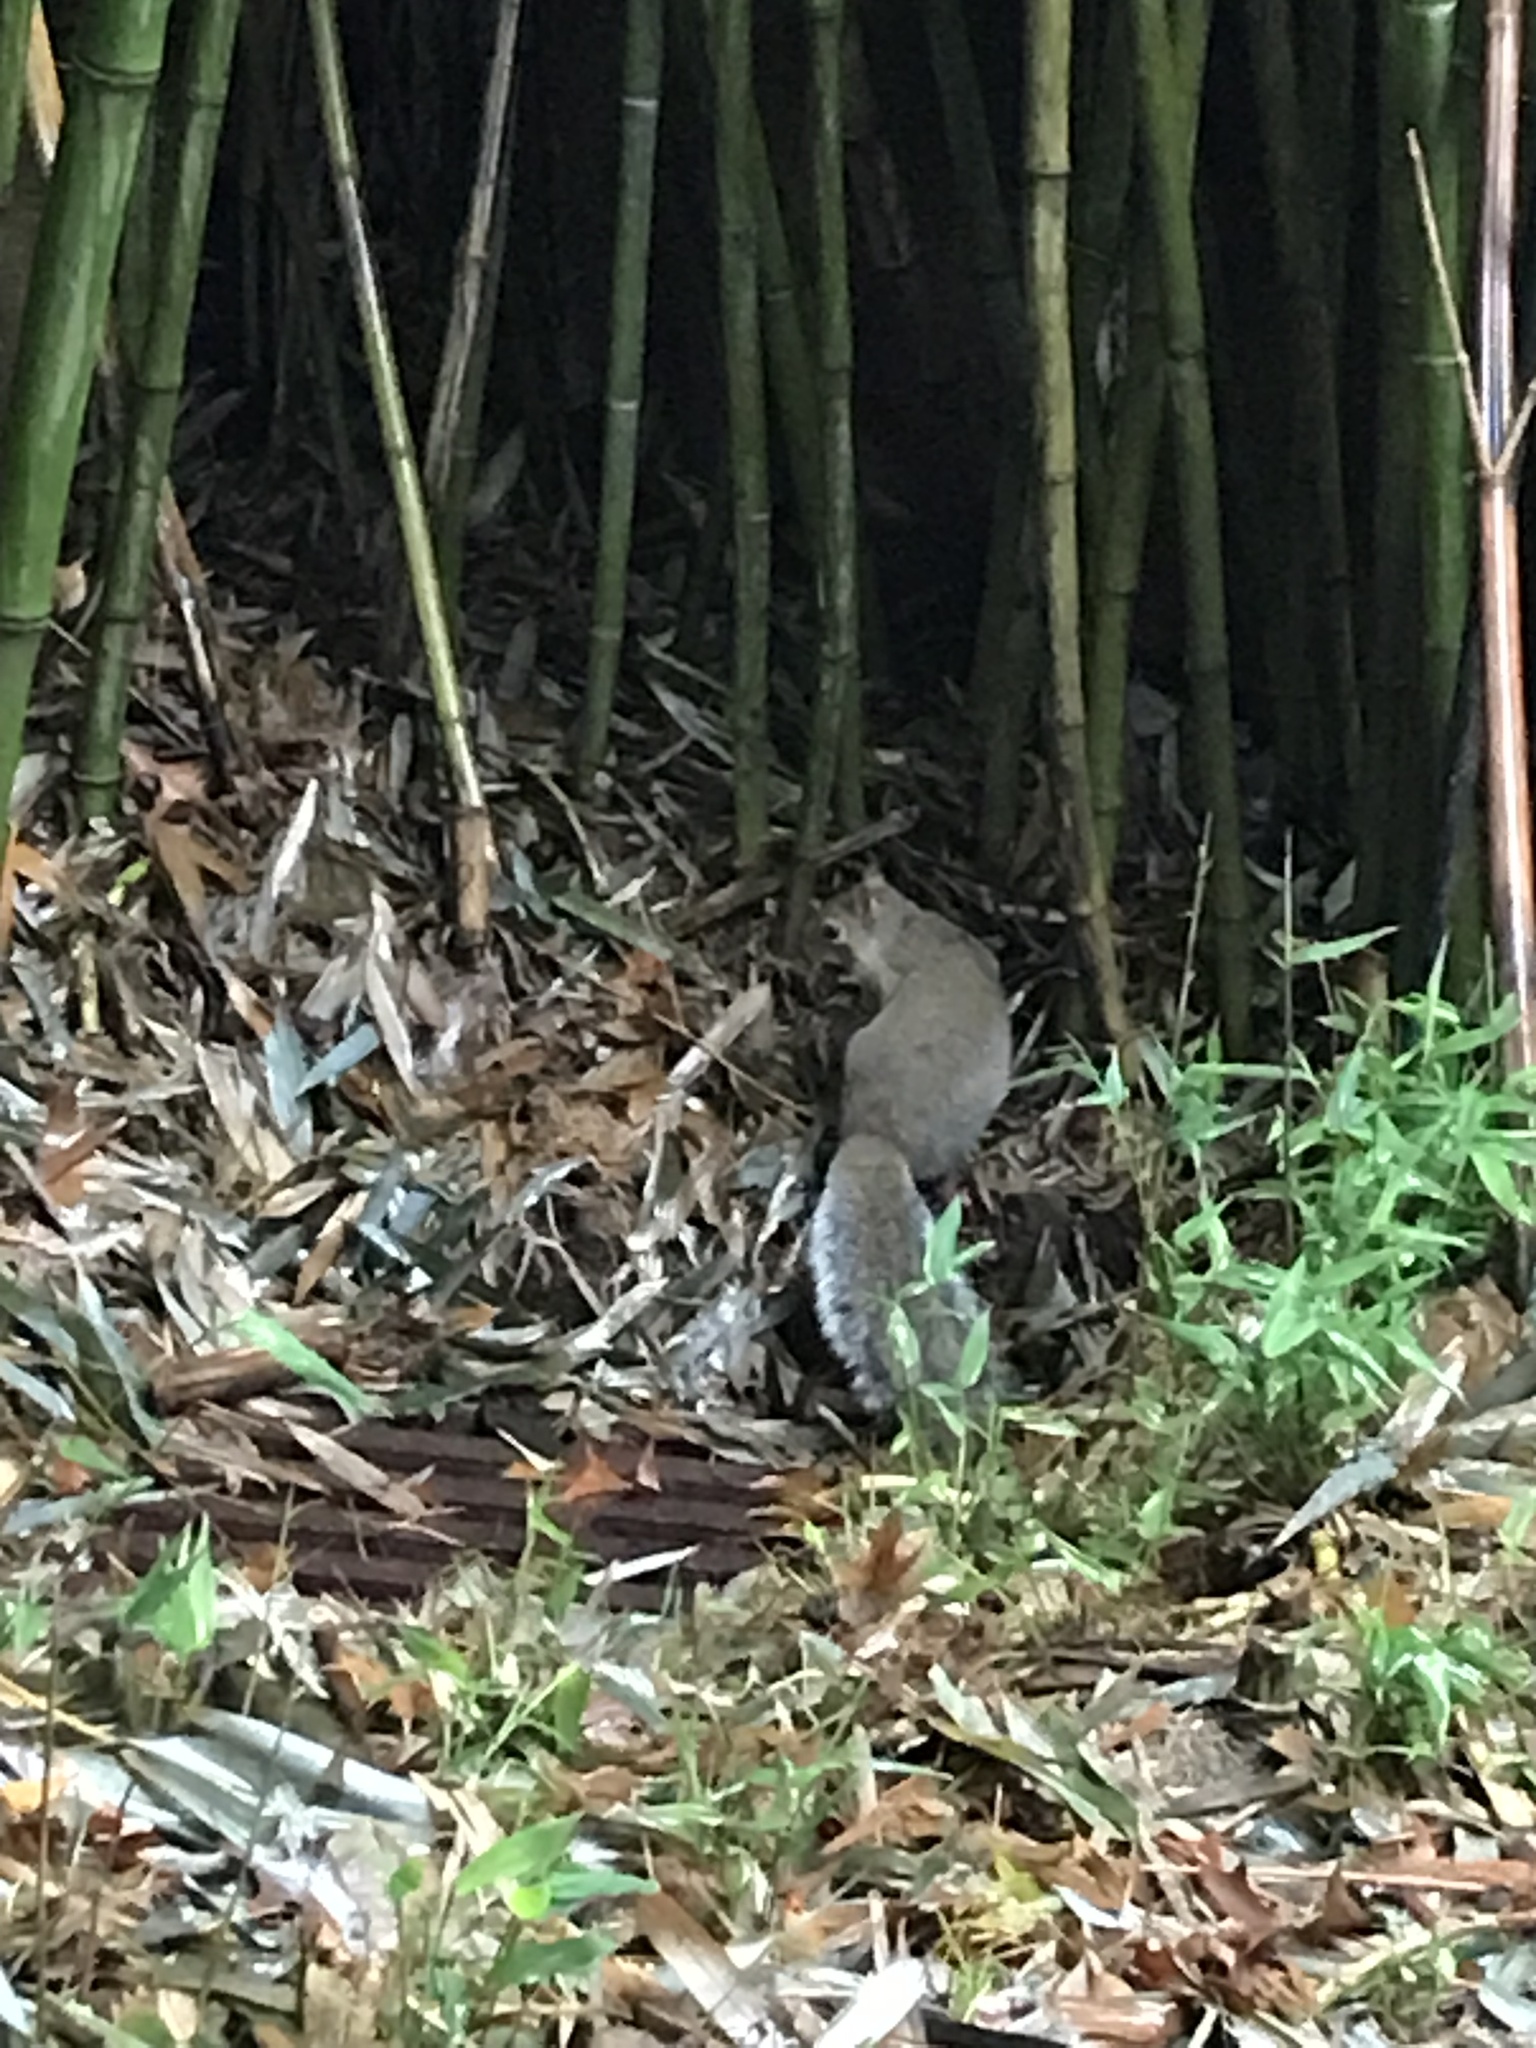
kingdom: Animalia
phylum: Chordata
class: Mammalia
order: Rodentia
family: Sciuridae
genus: Sciurus
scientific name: Sciurus carolinensis
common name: Eastern gray squirrel
